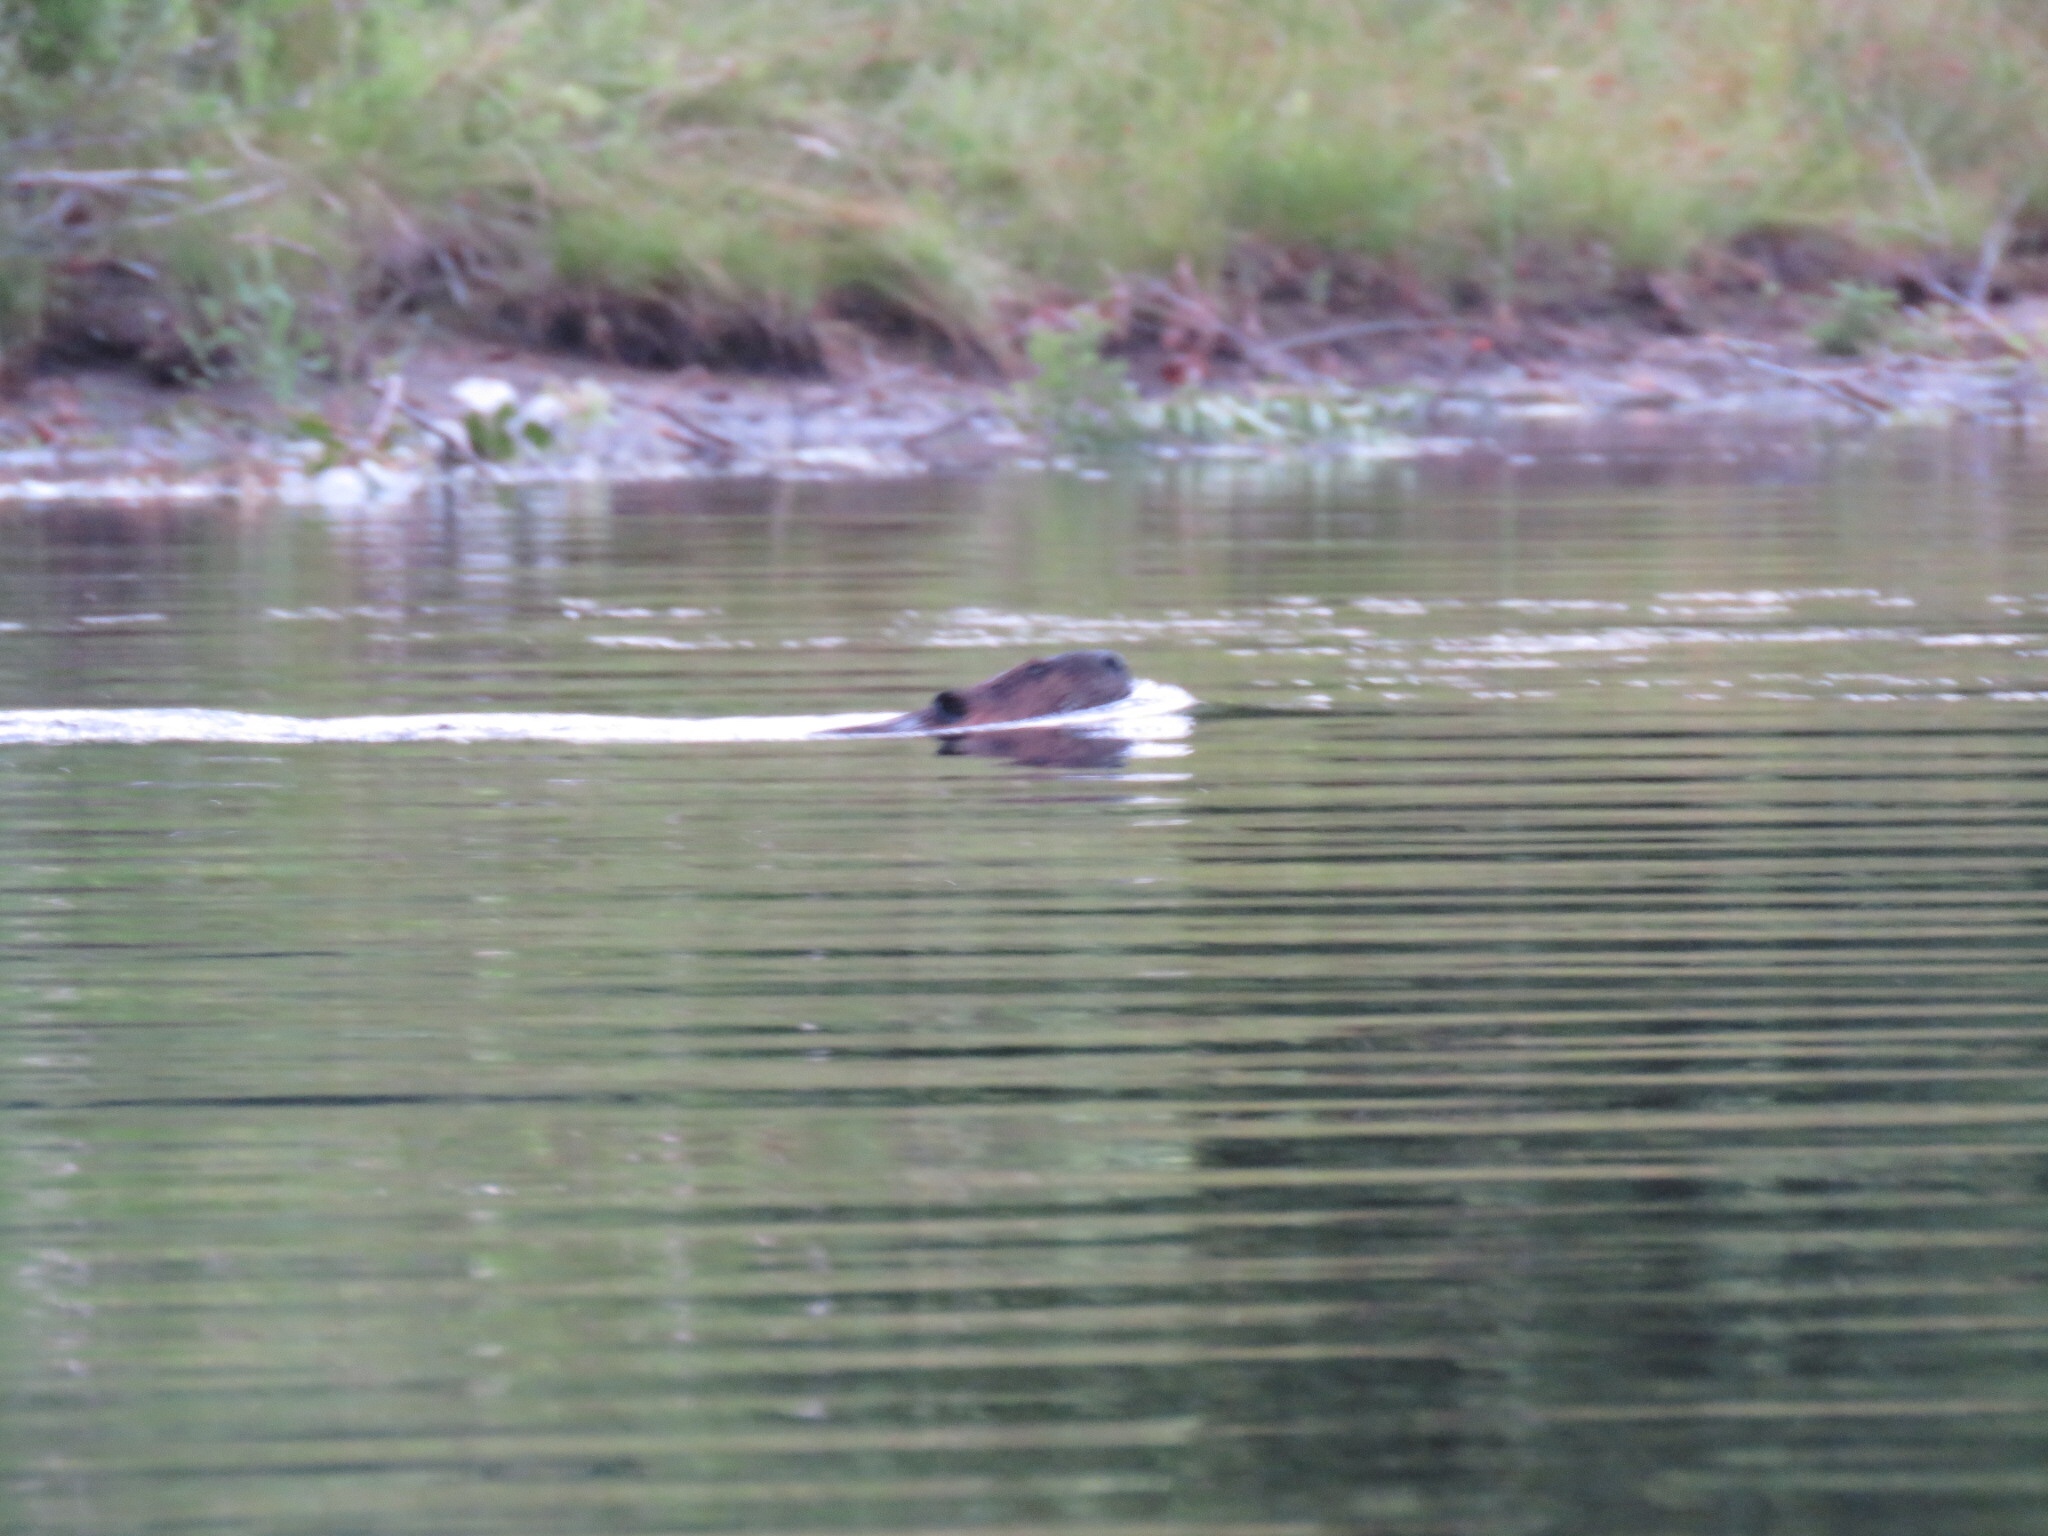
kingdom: Animalia
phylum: Chordata
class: Mammalia
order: Rodentia
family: Castoridae
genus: Castor
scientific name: Castor canadensis
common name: American beaver
